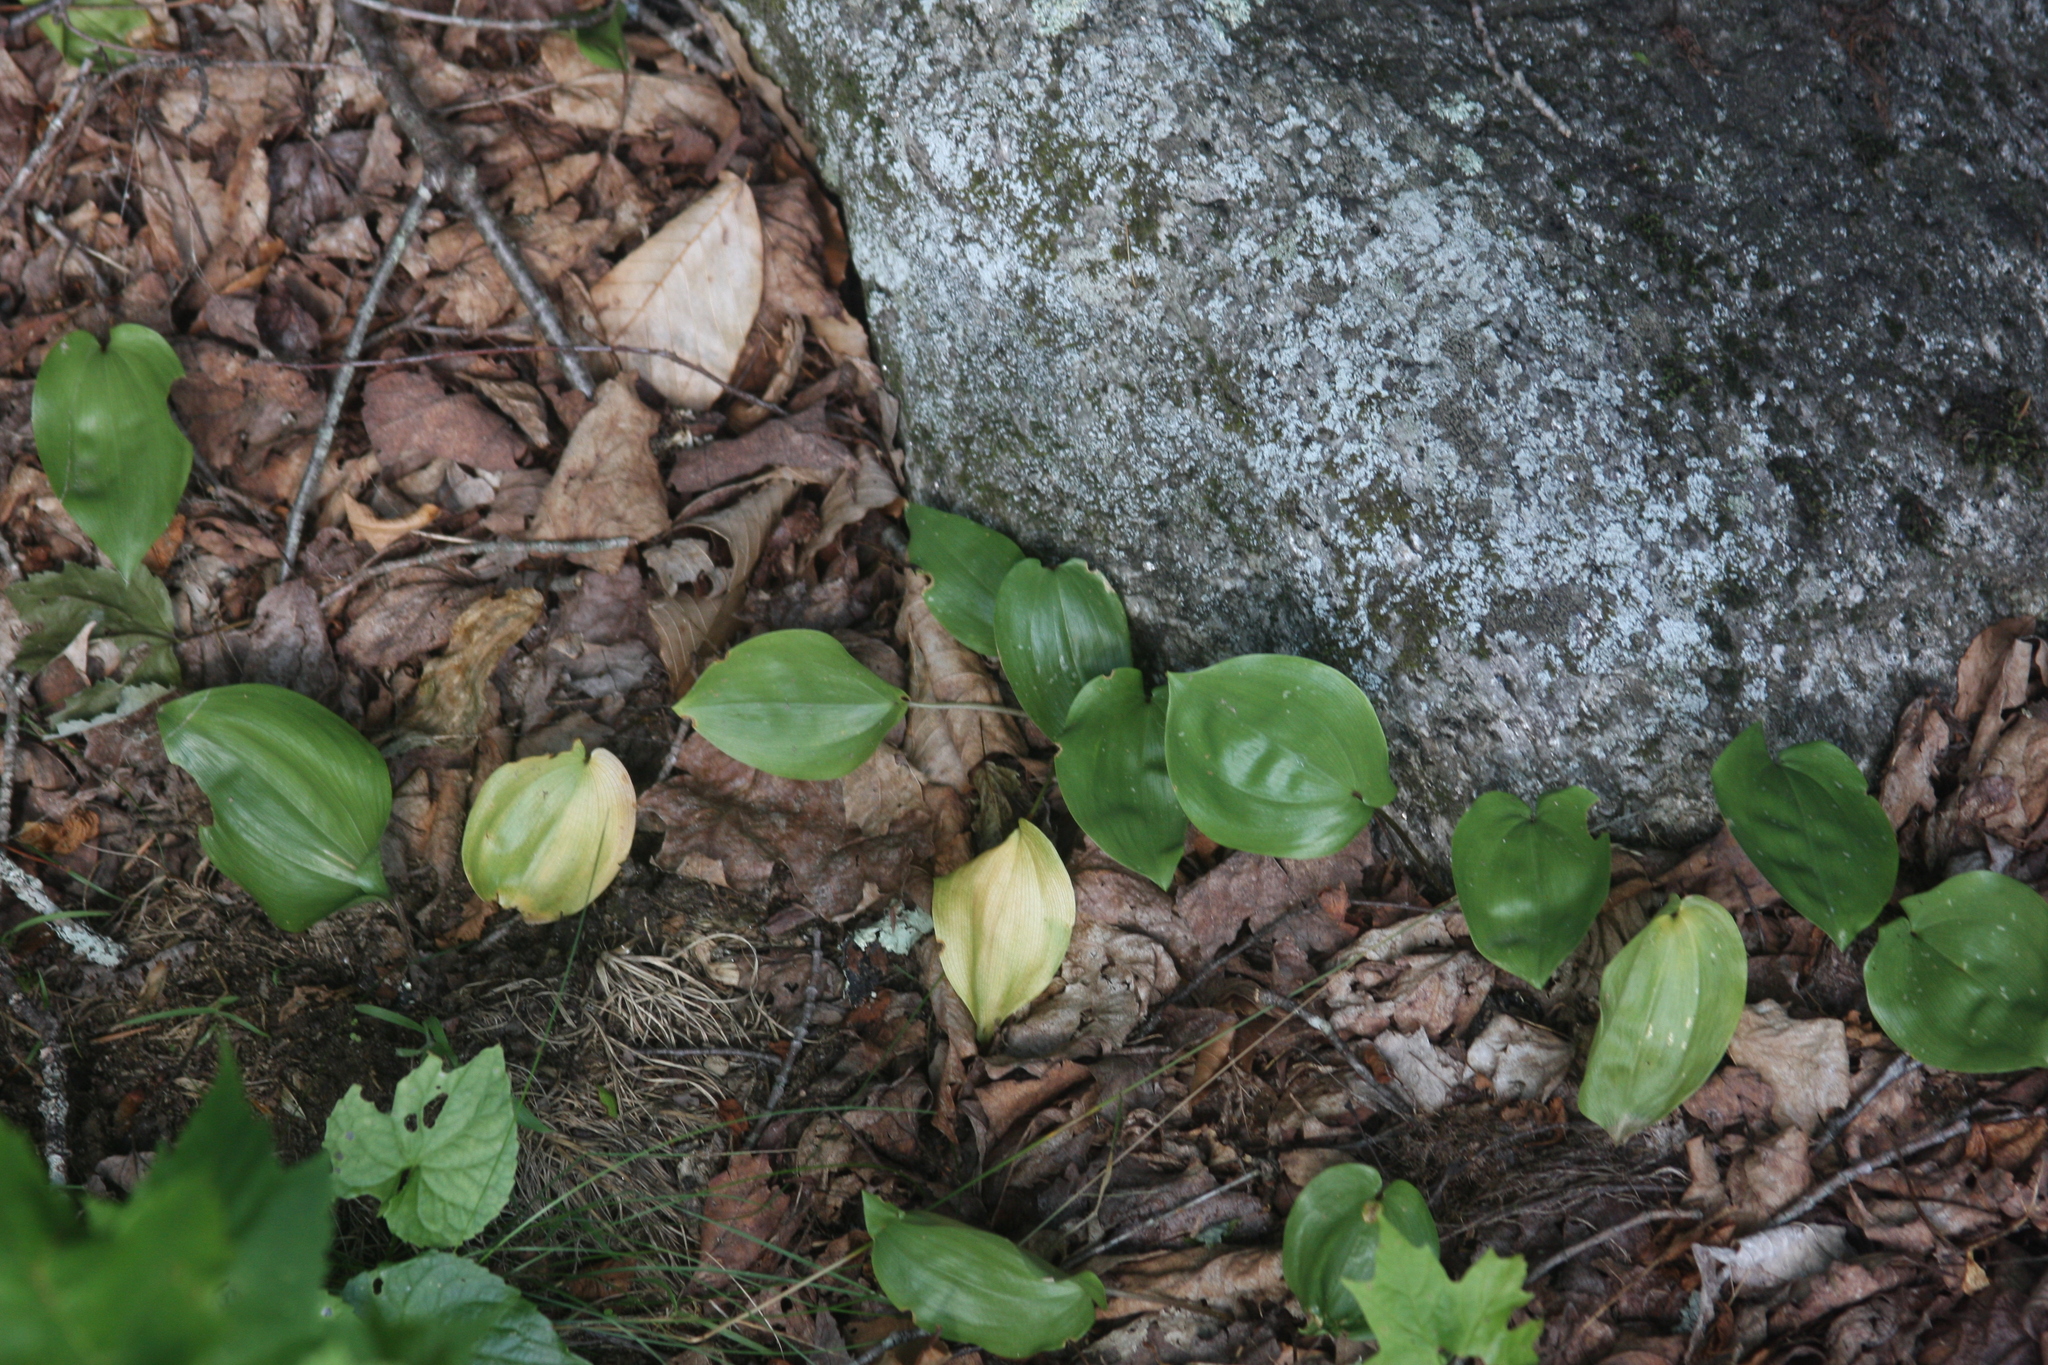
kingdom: Plantae
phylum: Tracheophyta
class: Liliopsida
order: Asparagales
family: Asparagaceae
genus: Maianthemum
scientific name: Maianthemum canadense
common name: False lily-of-the-valley
